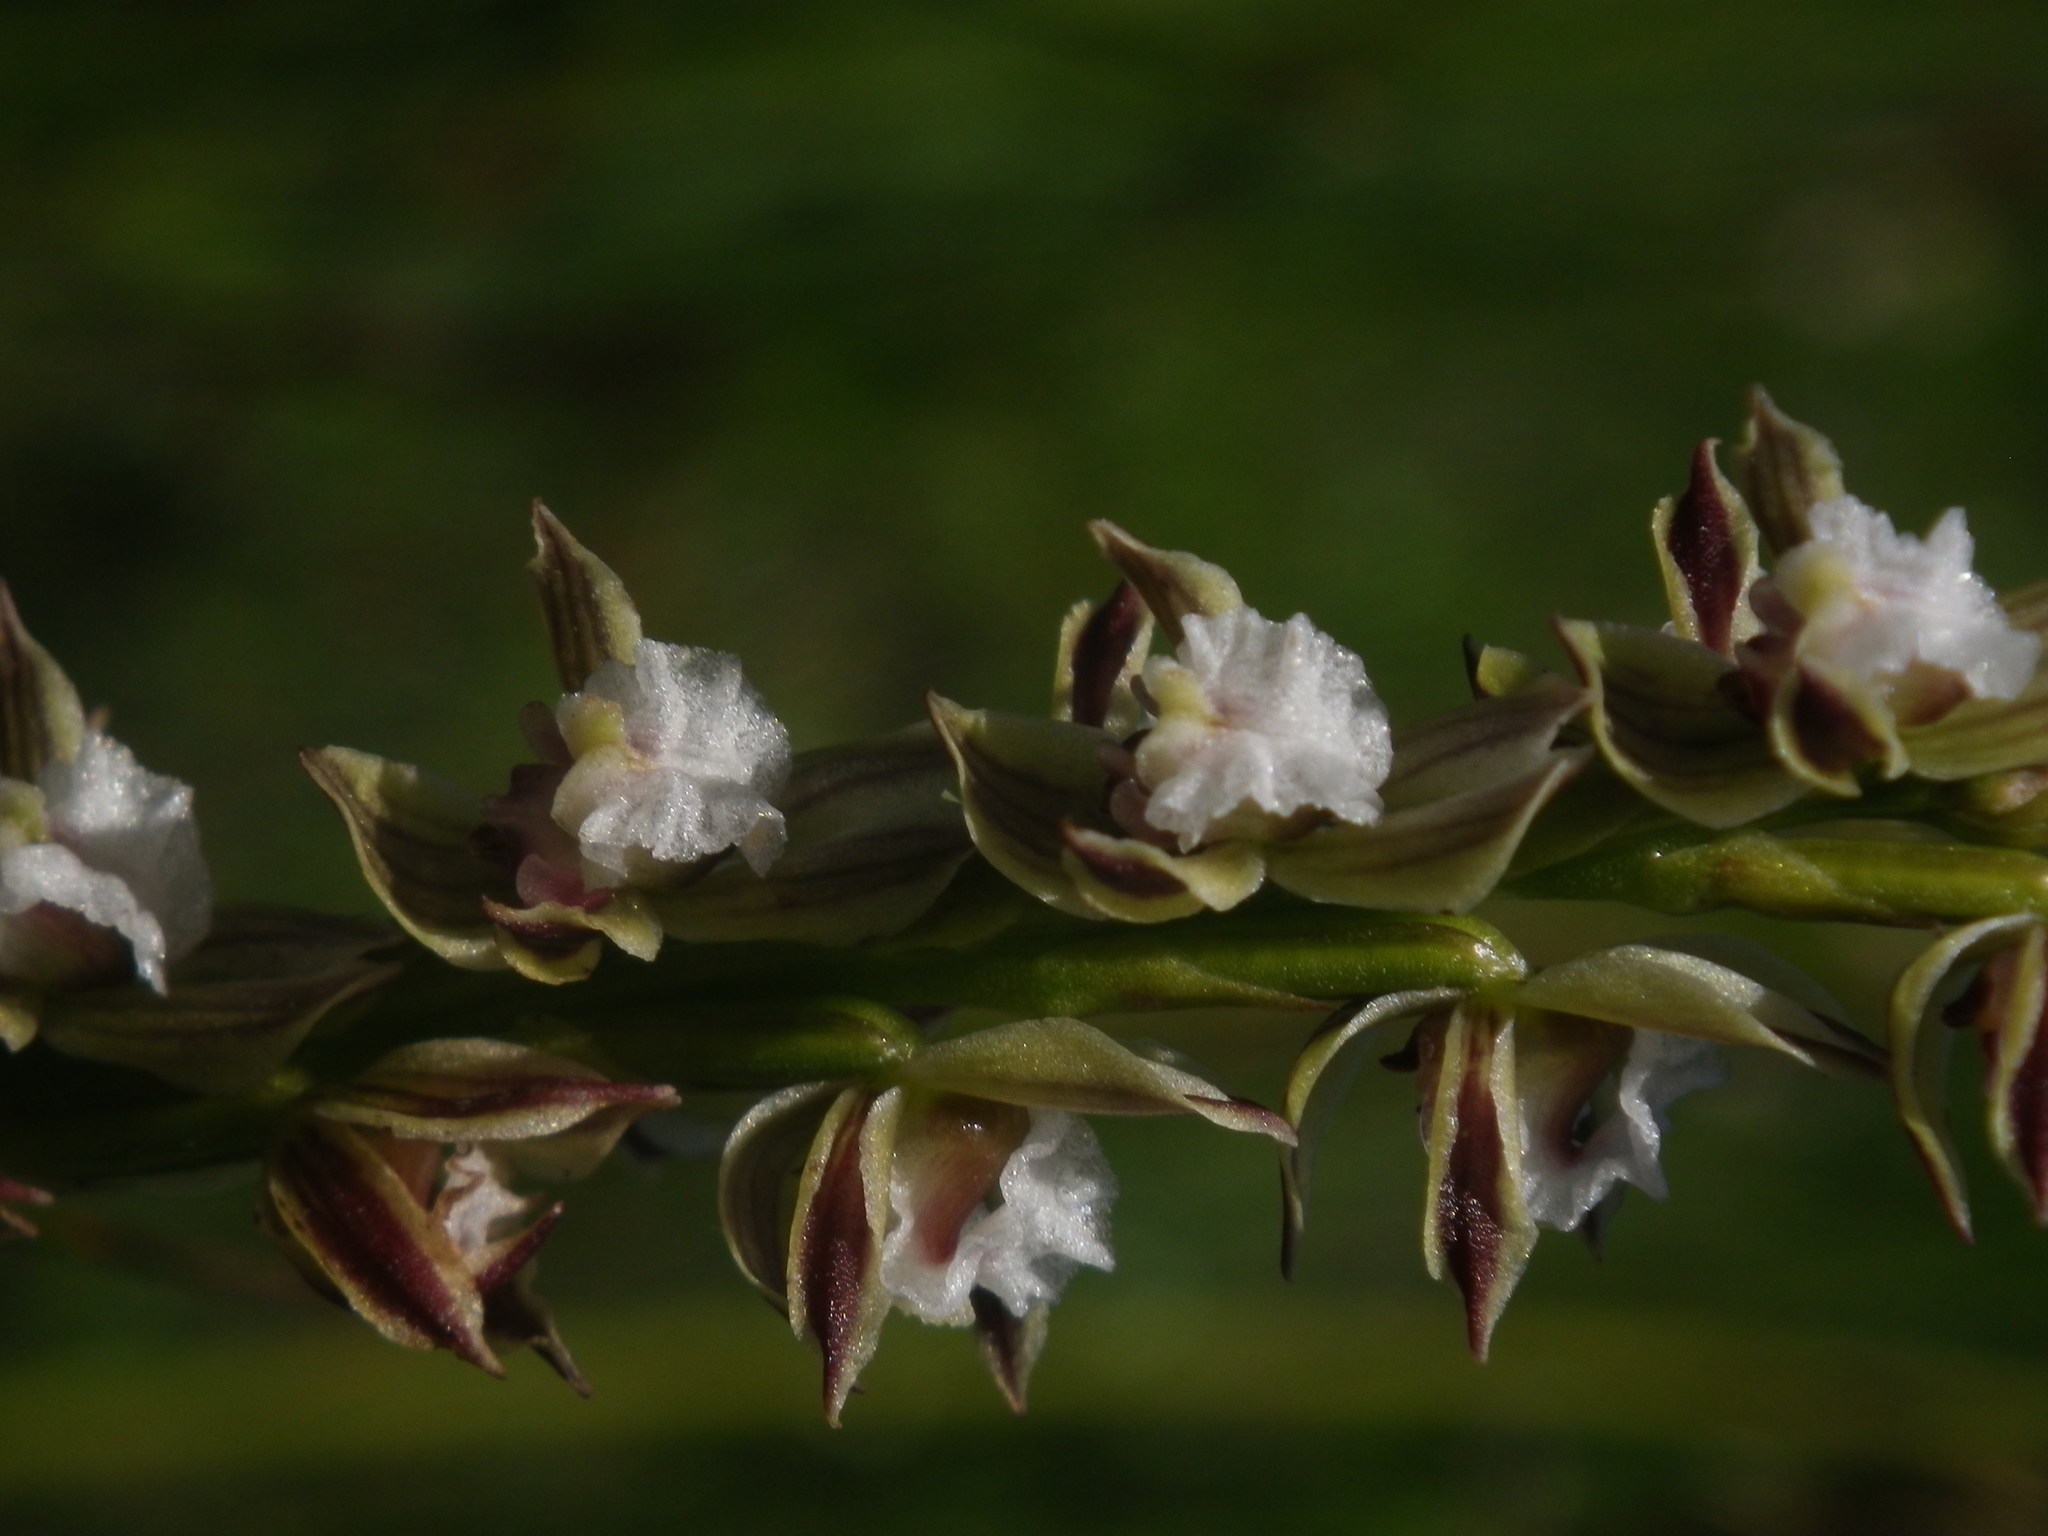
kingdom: Plantae
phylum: Tracheophyta
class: Liliopsida
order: Asparagales
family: Orchidaceae
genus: Prasophyllum
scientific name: Prasophyllum australe
